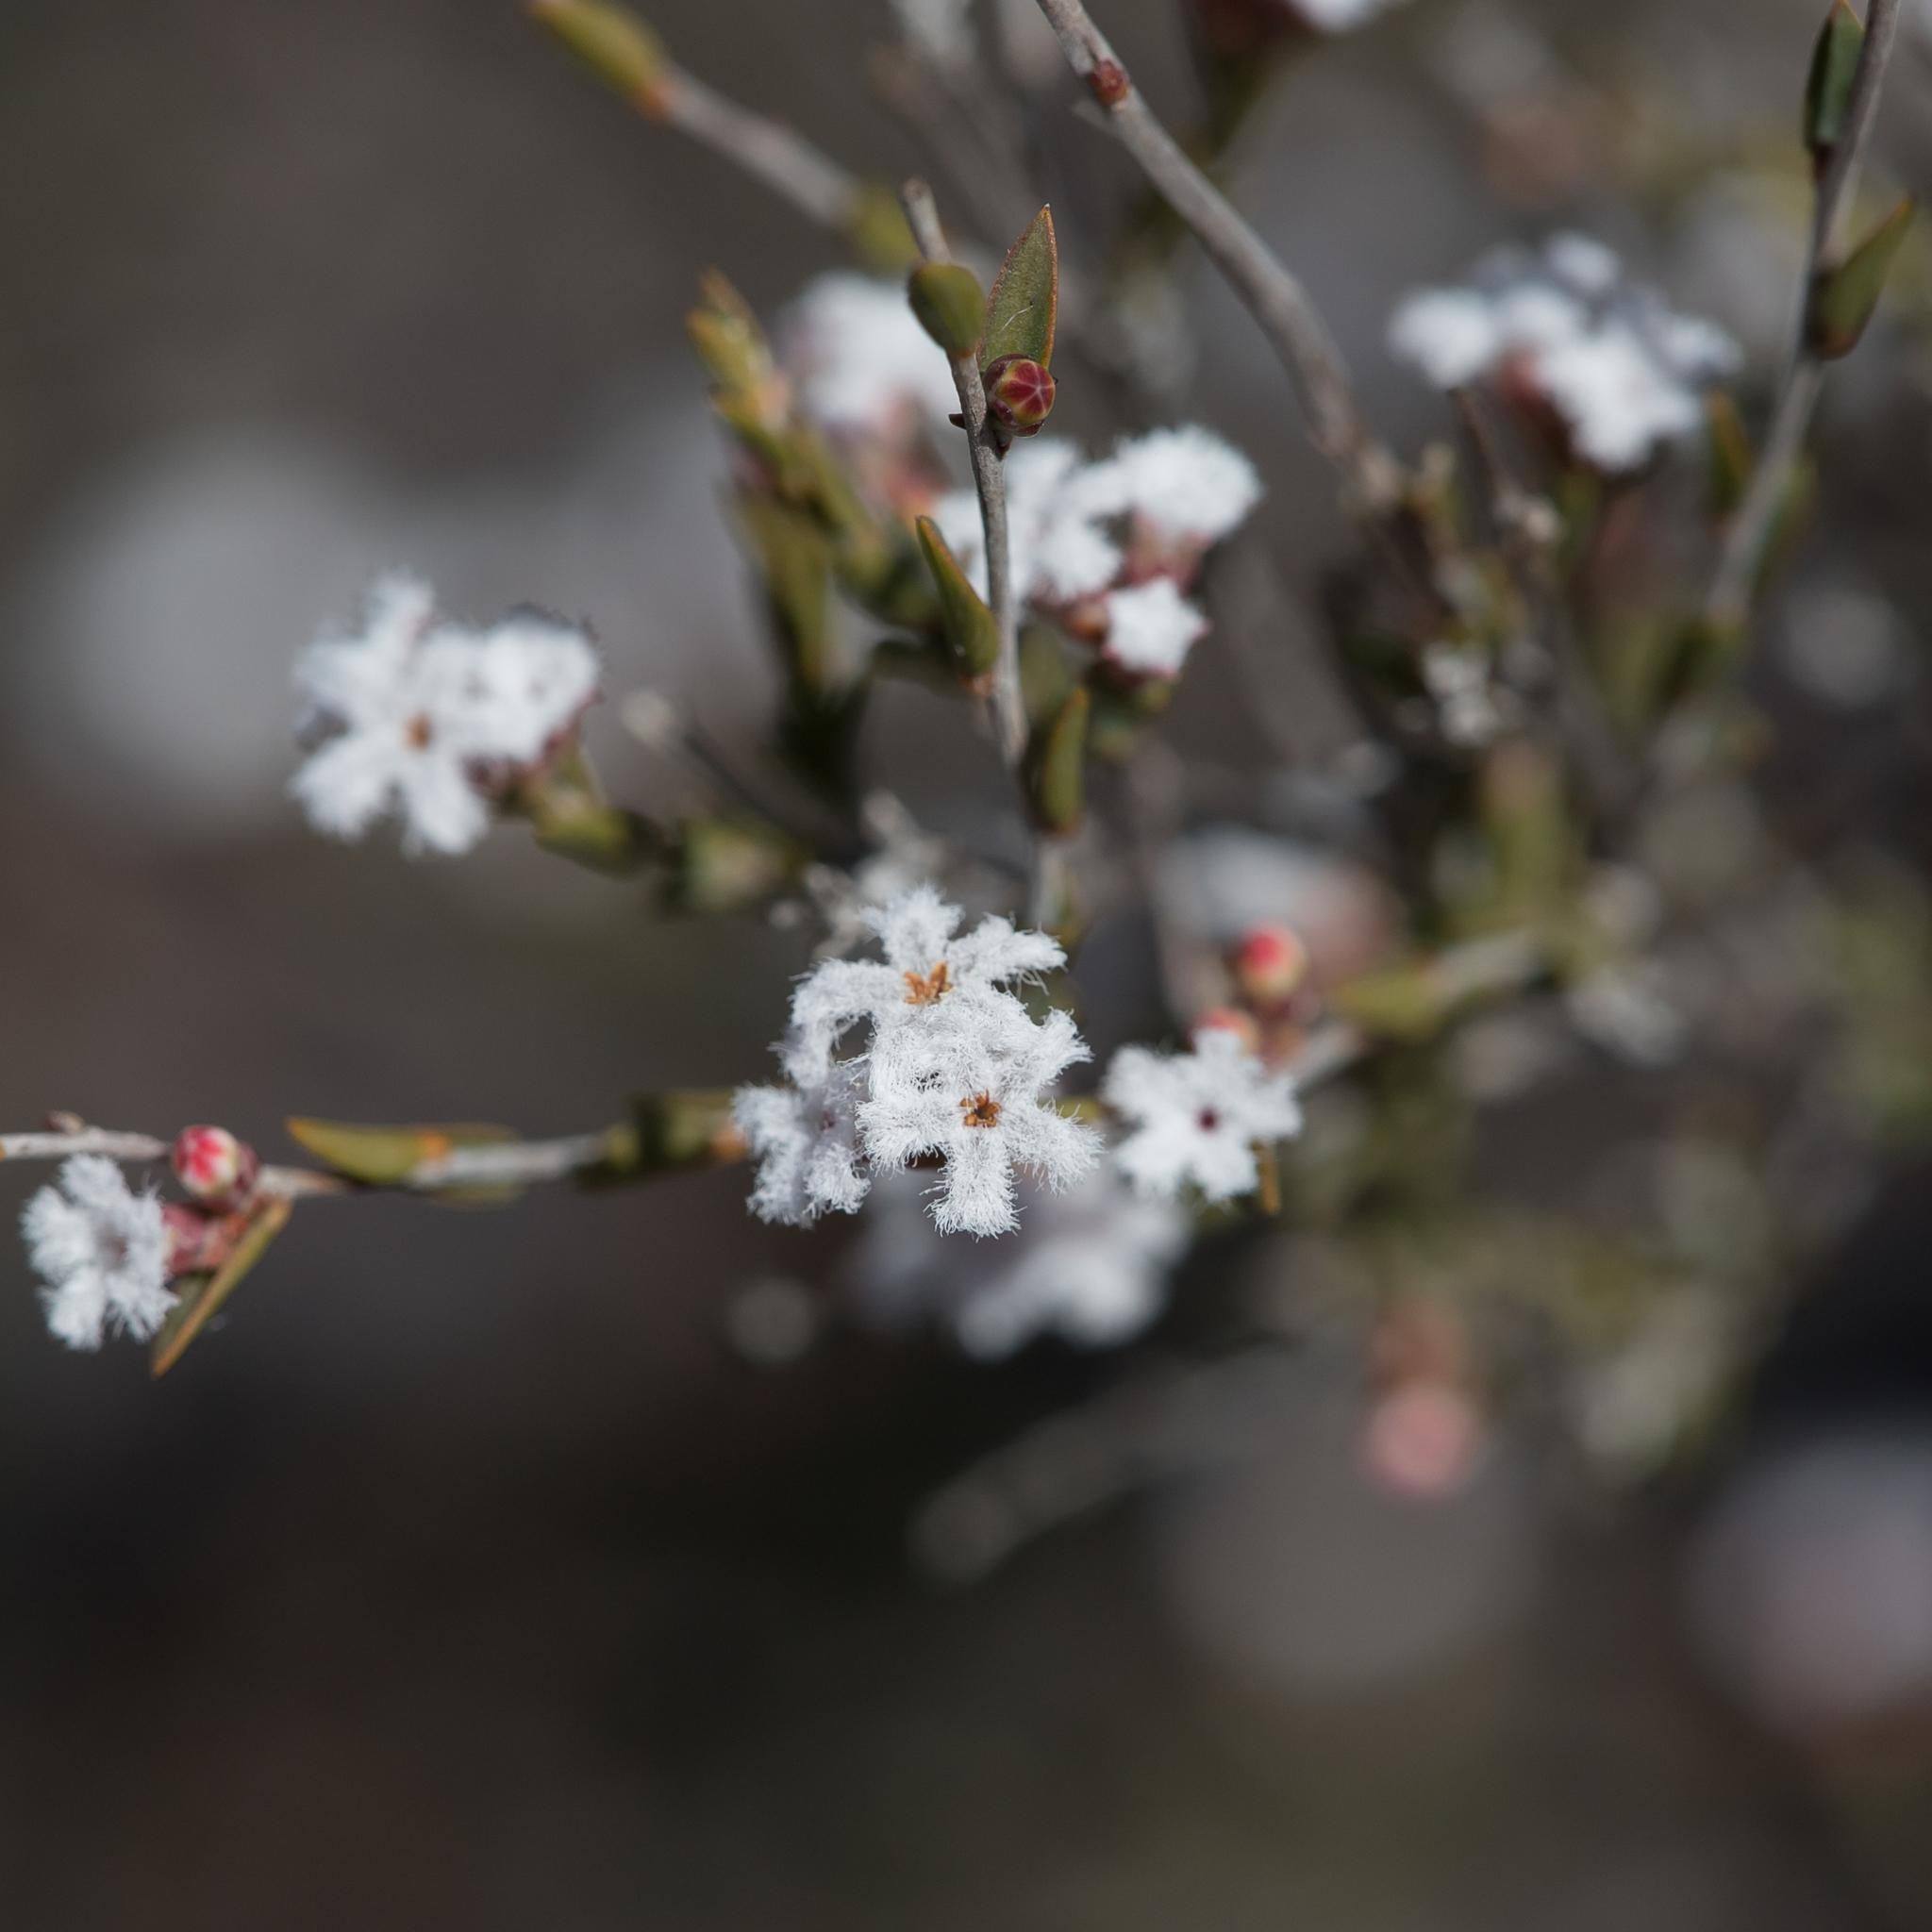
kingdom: Plantae
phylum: Tracheophyta
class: Magnoliopsida
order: Ericales
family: Ericaceae
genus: Leucopogon
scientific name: Leucopogon costatus
